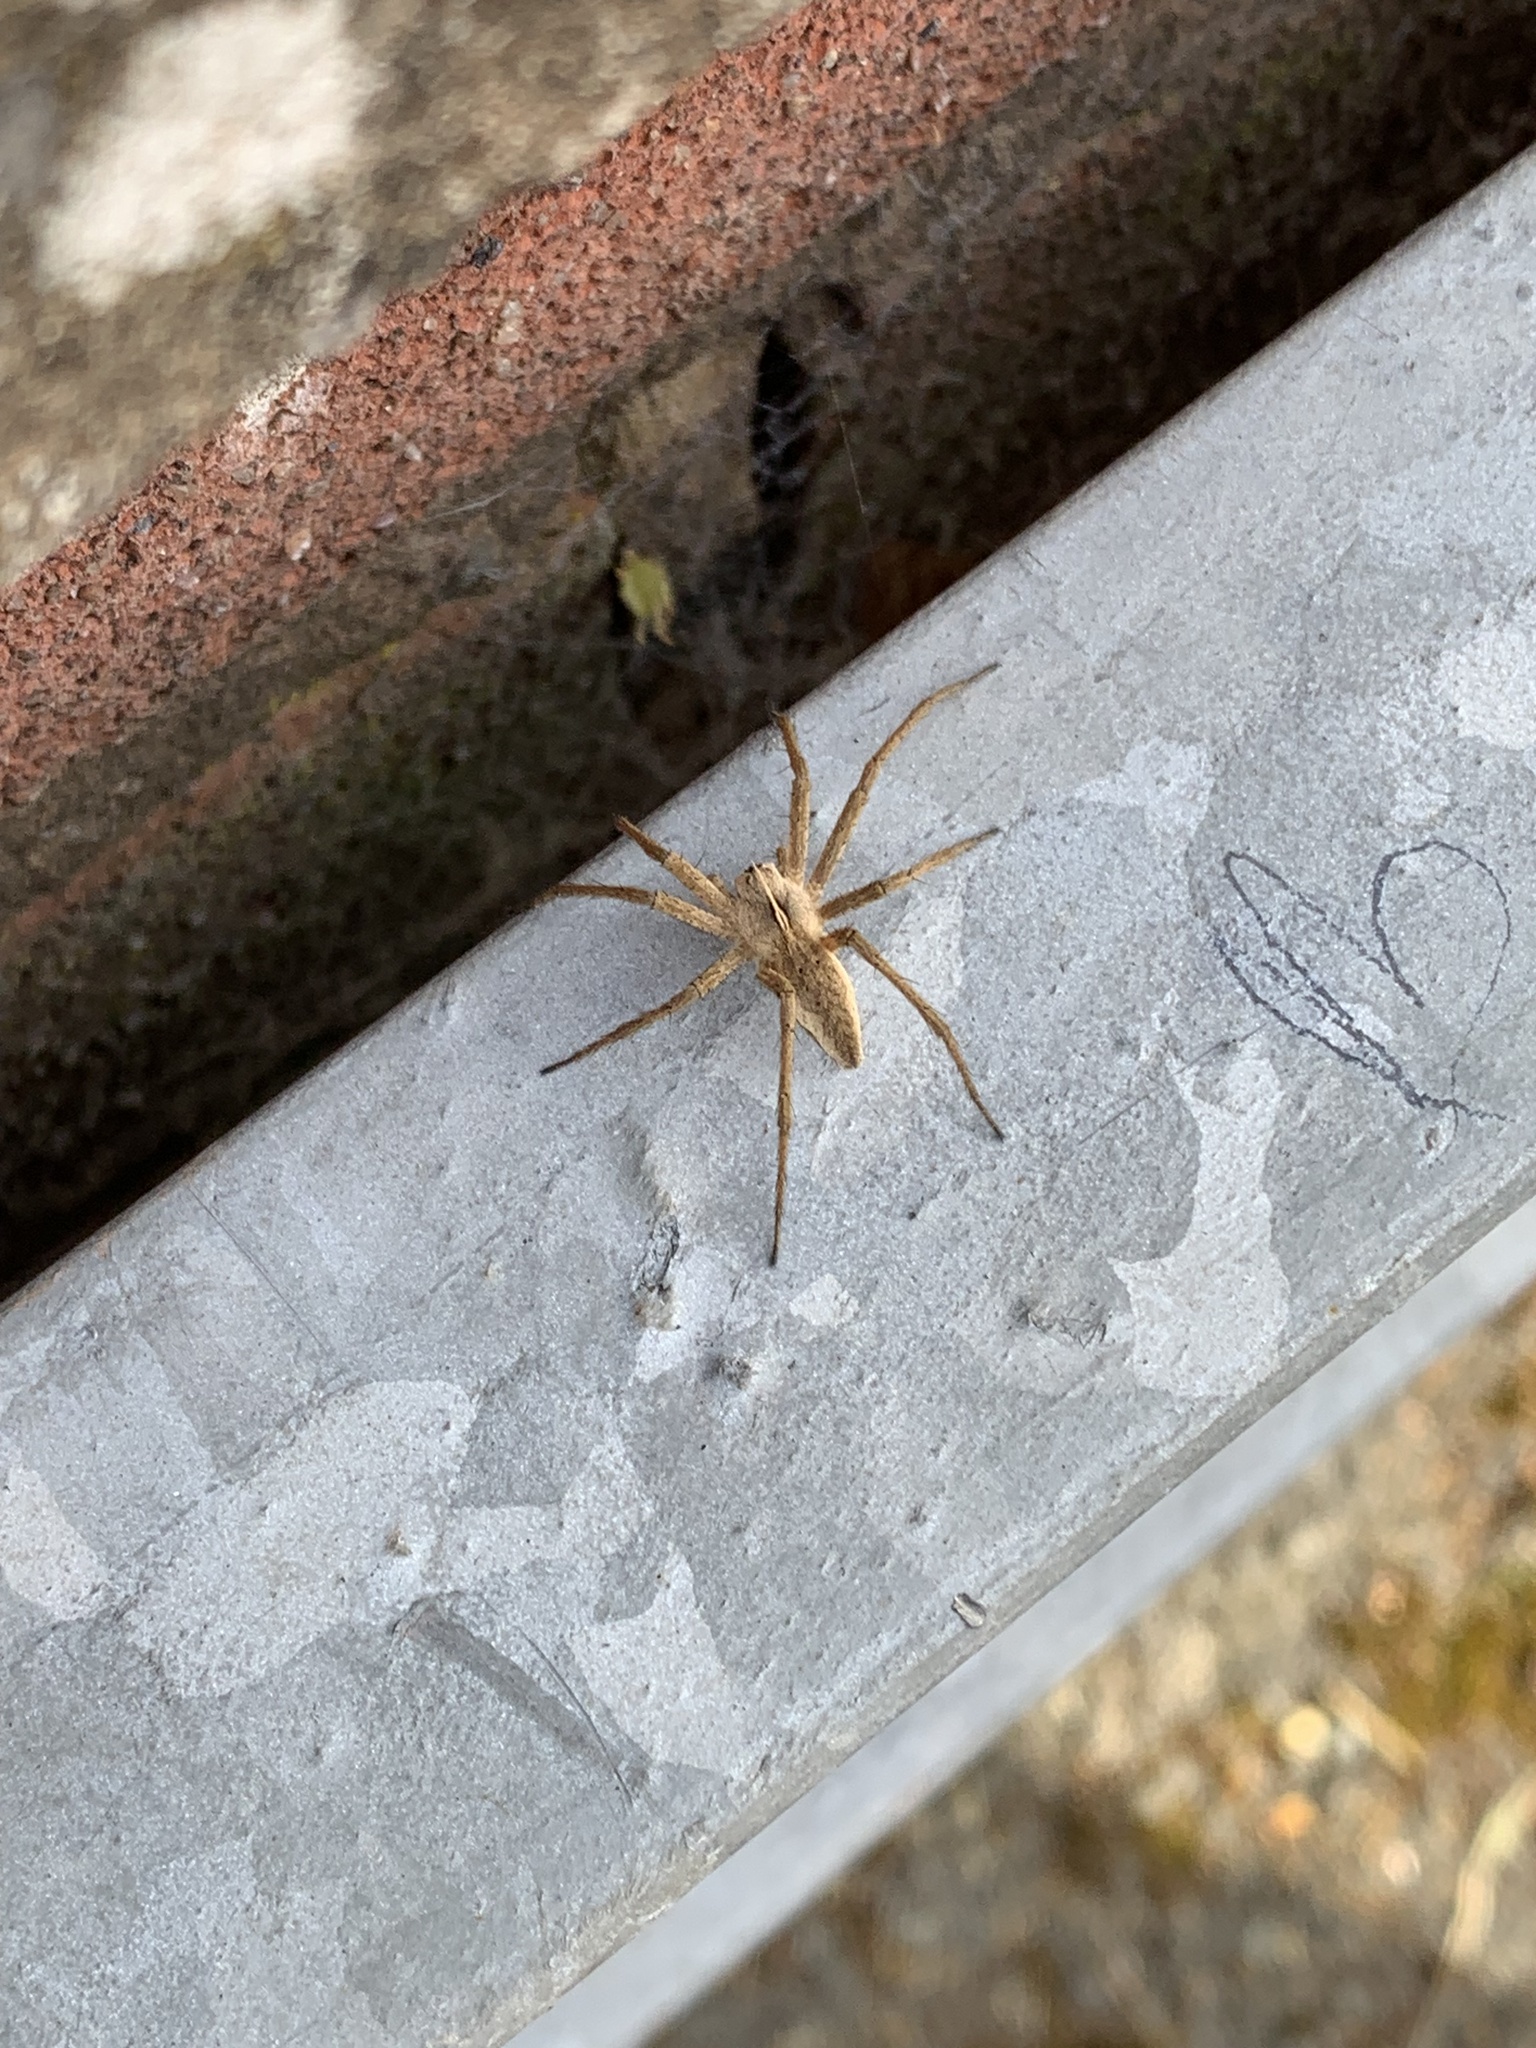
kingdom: Animalia
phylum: Arthropoda
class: Arachnida
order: Araneae
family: Pisauridae
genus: Pisaura
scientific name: Pisaura mirabilis
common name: Tent spider
